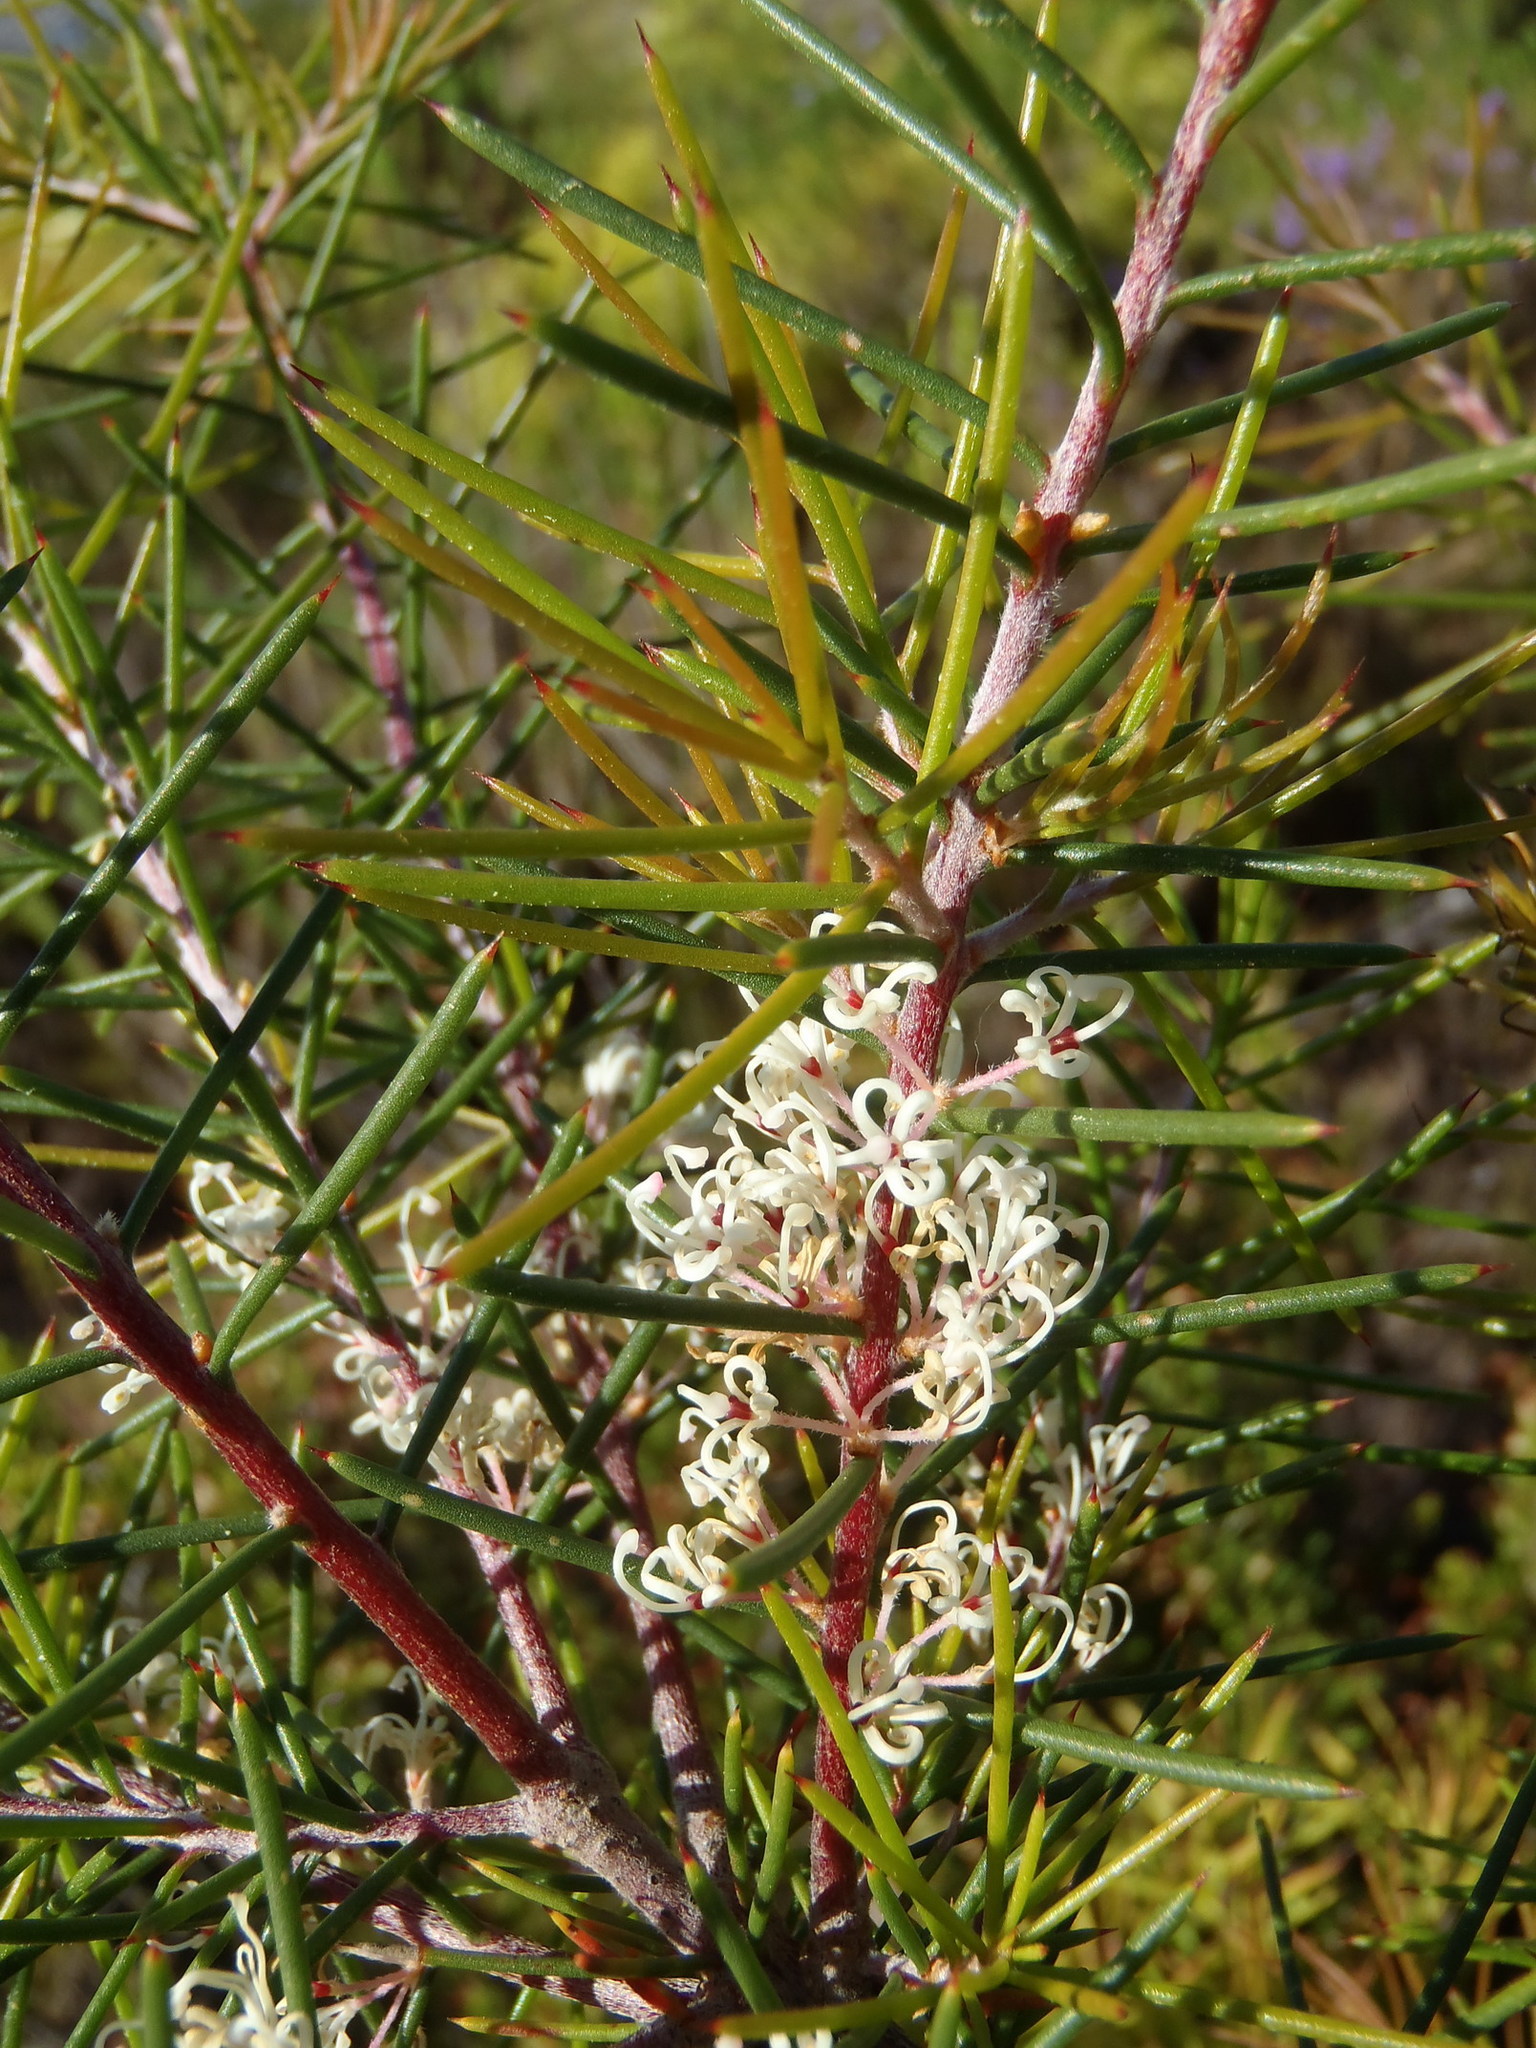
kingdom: Plantae
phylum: Tracheophyta
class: Magnoliopsida
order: Proteales
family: Proteaceae
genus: Hakea
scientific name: Hakea sericea
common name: Needle bush
